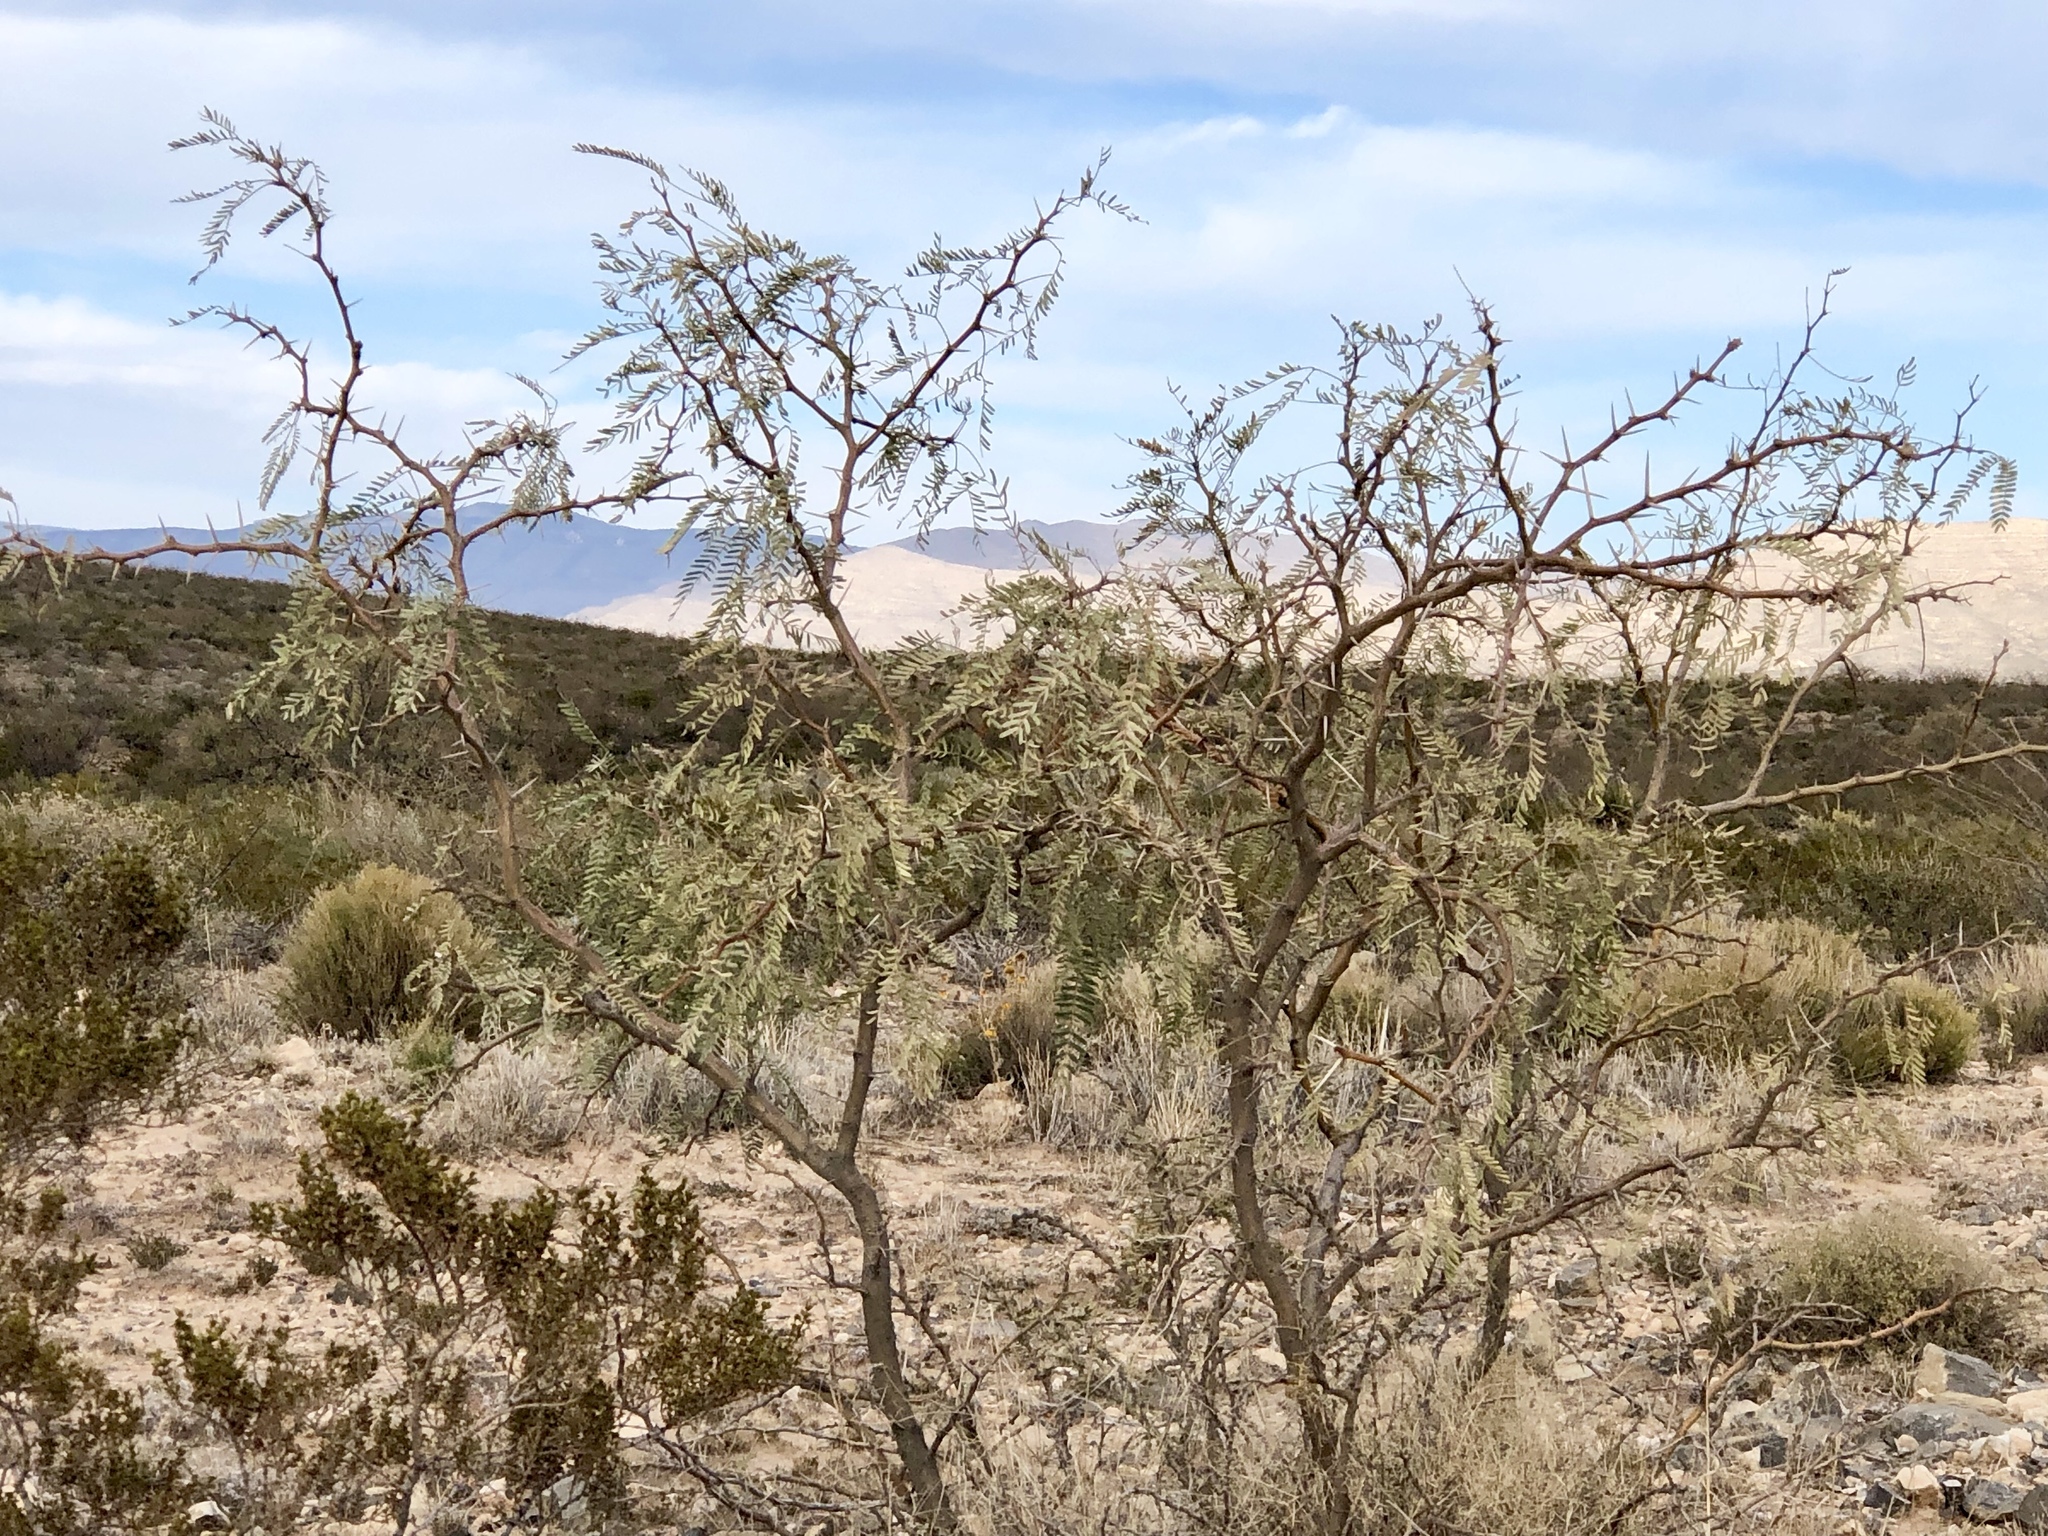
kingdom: Plantae
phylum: Tracheophyta
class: Magnoliopsida
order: Fabales
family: Fabaceae
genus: Prosopis
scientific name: Prosopis glandulosa
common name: Honey mesquite
